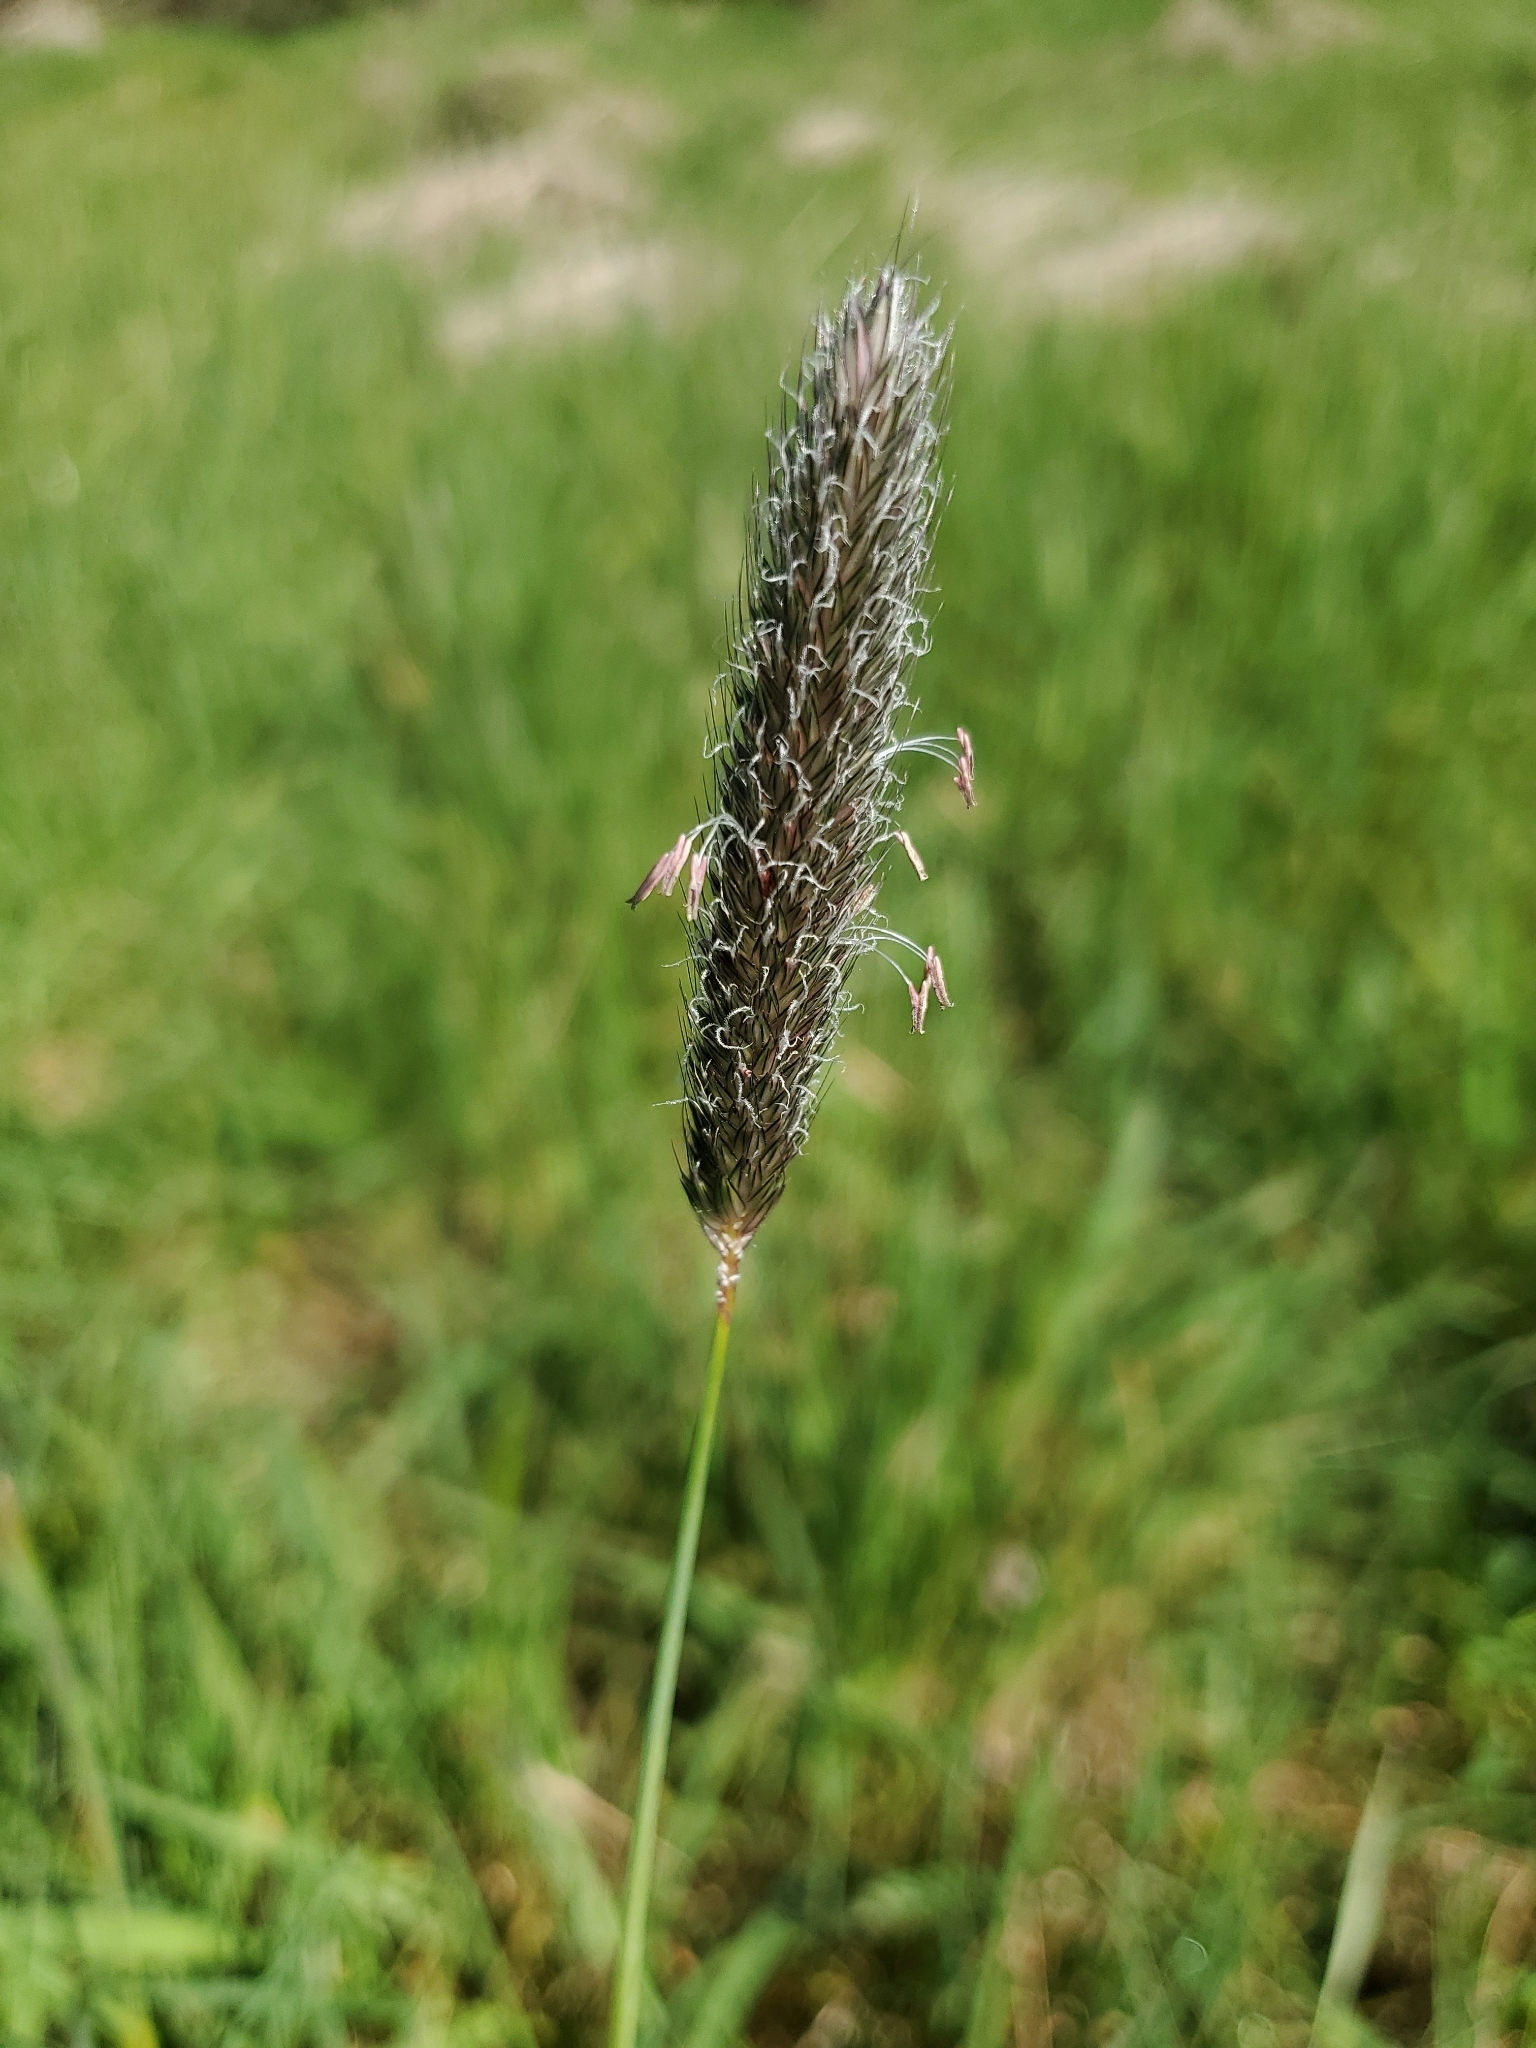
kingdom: Plantae
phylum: Tracheophyta
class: Liliopsida
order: Poales
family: Poaceae
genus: Alopecurus
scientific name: Alopecurus pratensis
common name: Meadow foxtail
